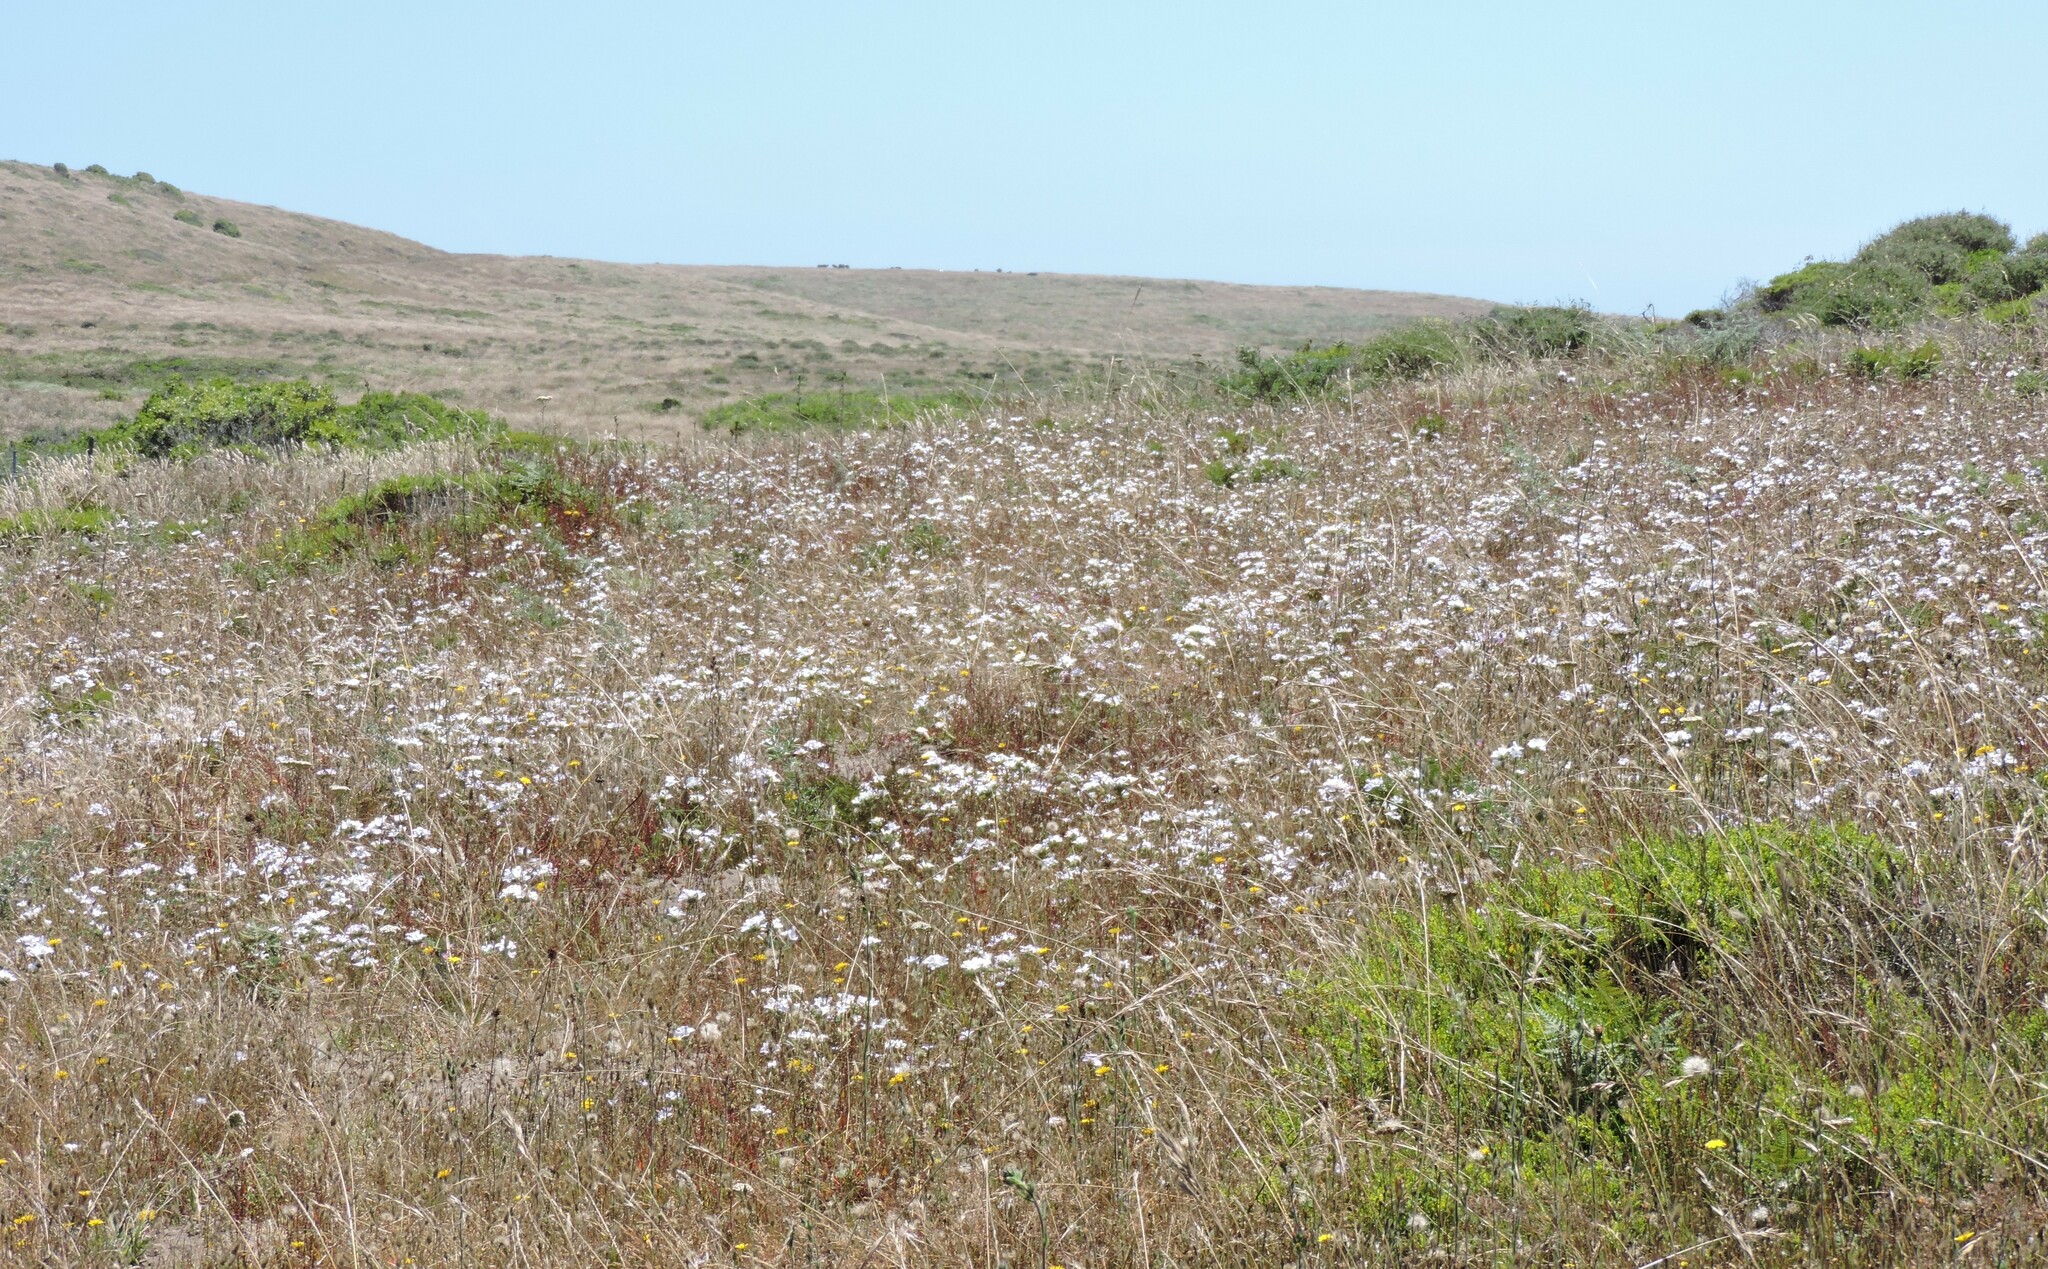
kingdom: Plantae
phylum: Tracheophyta
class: Magnoliopsida
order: Ericales
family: Polemoniaceae
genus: Leptosiphon
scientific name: Leptosiphon grandiflorus
